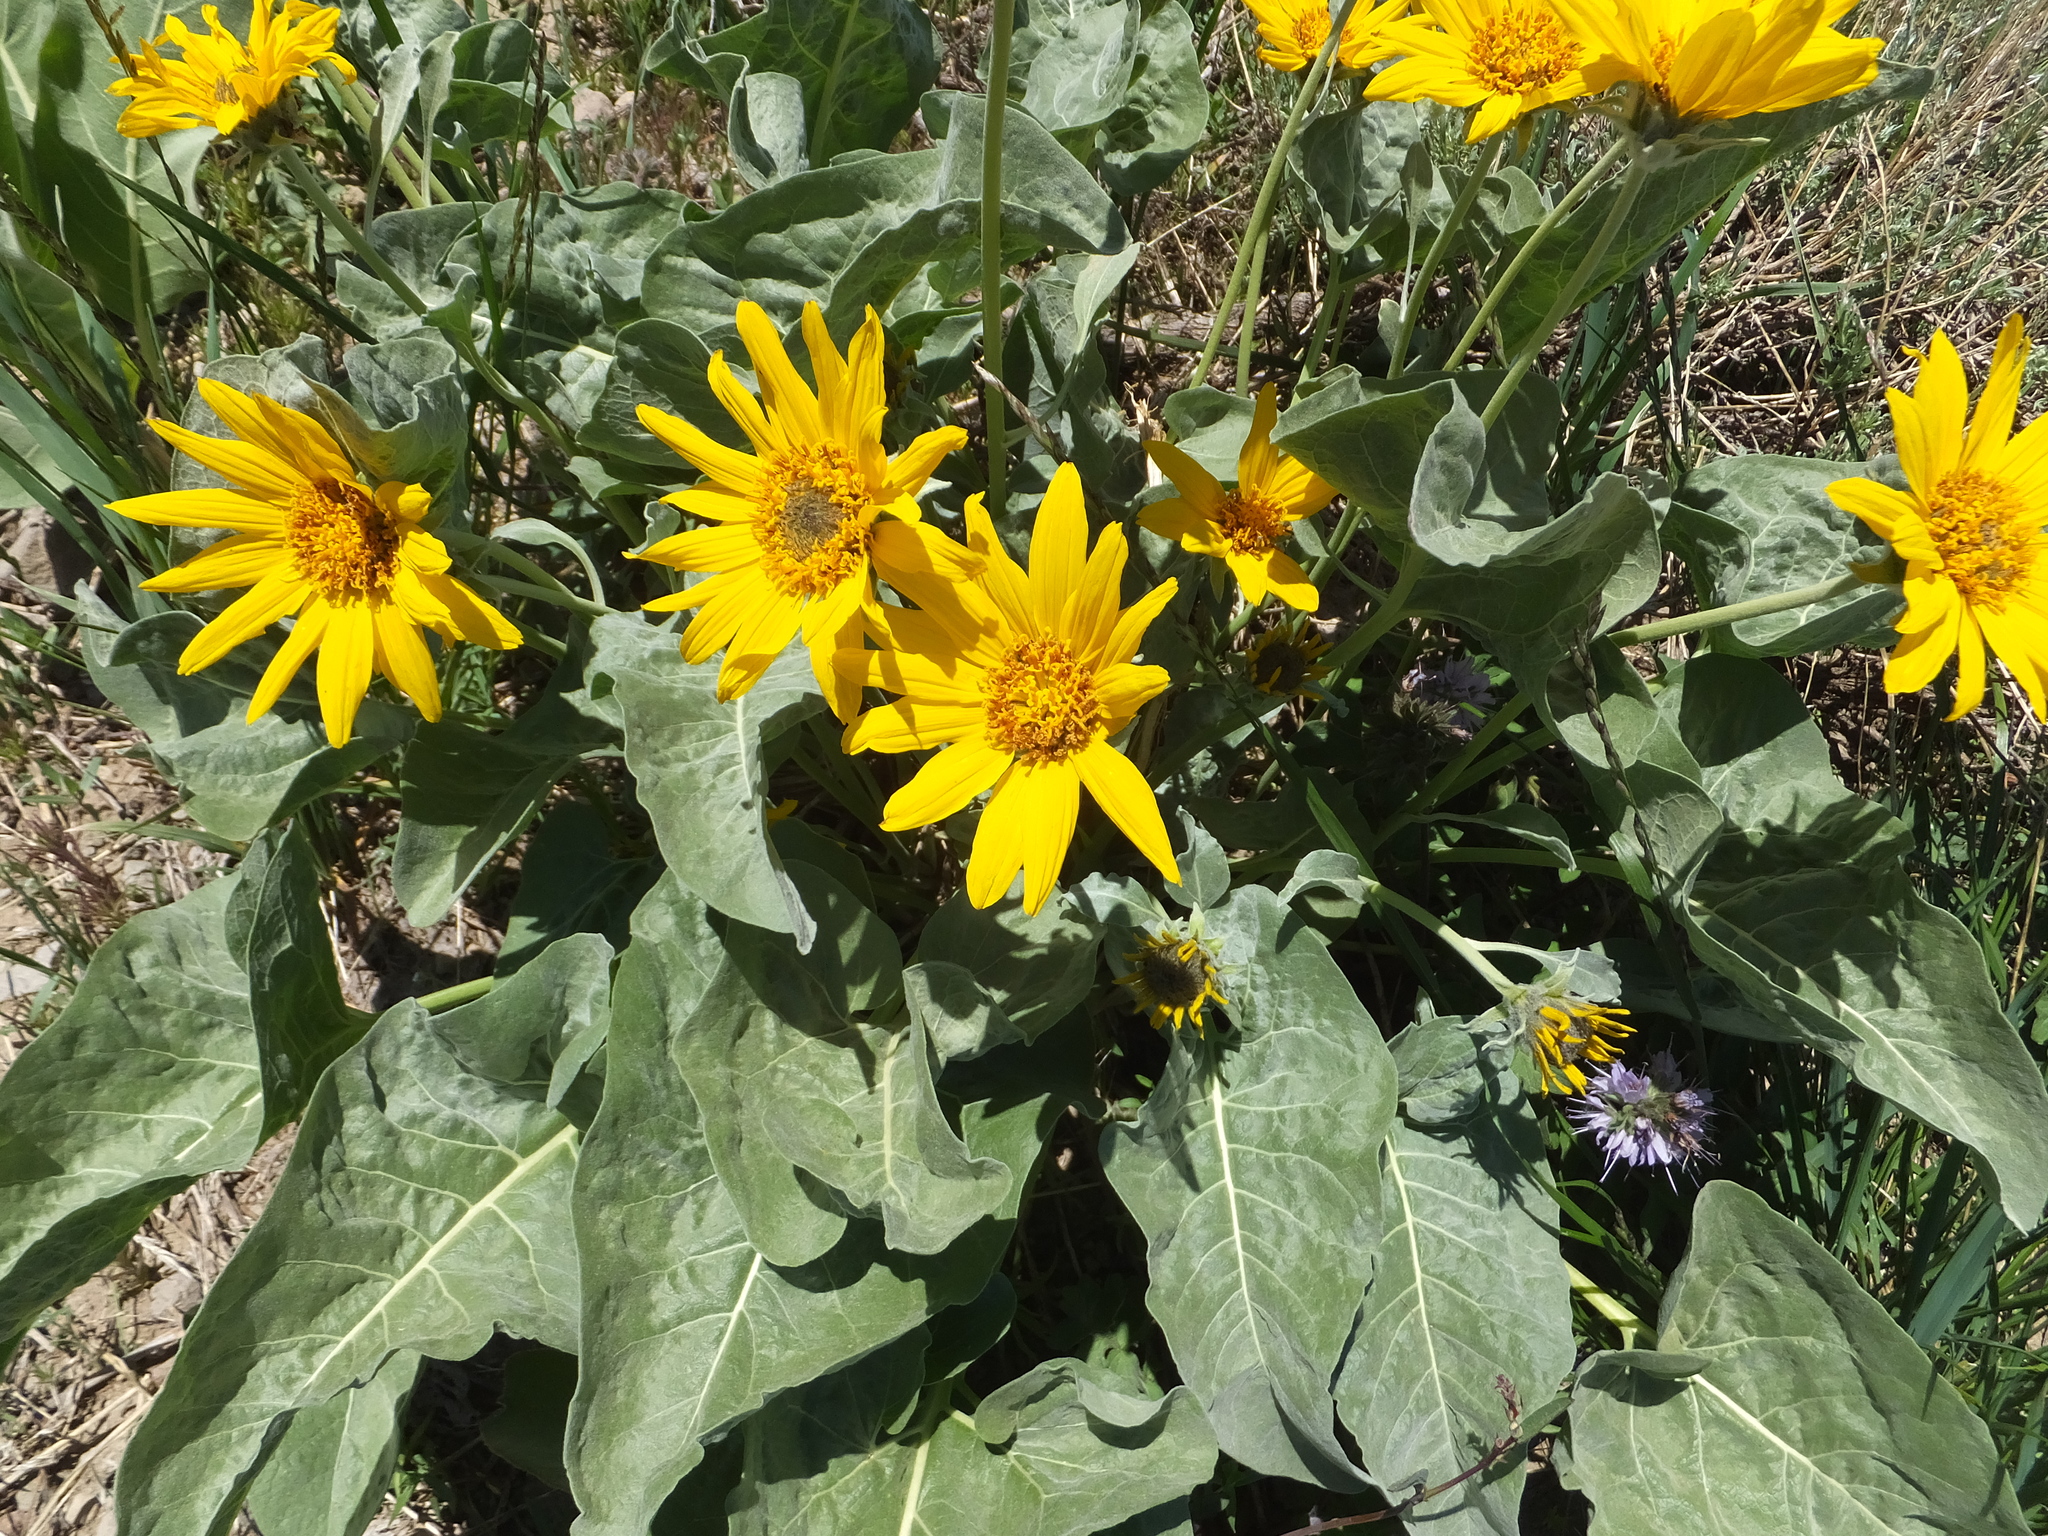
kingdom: Plantae
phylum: Tracheophyta
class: Magnoliopsida
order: Asterales
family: Asteraceae
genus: Wyethia
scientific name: Wyethia sagittata
